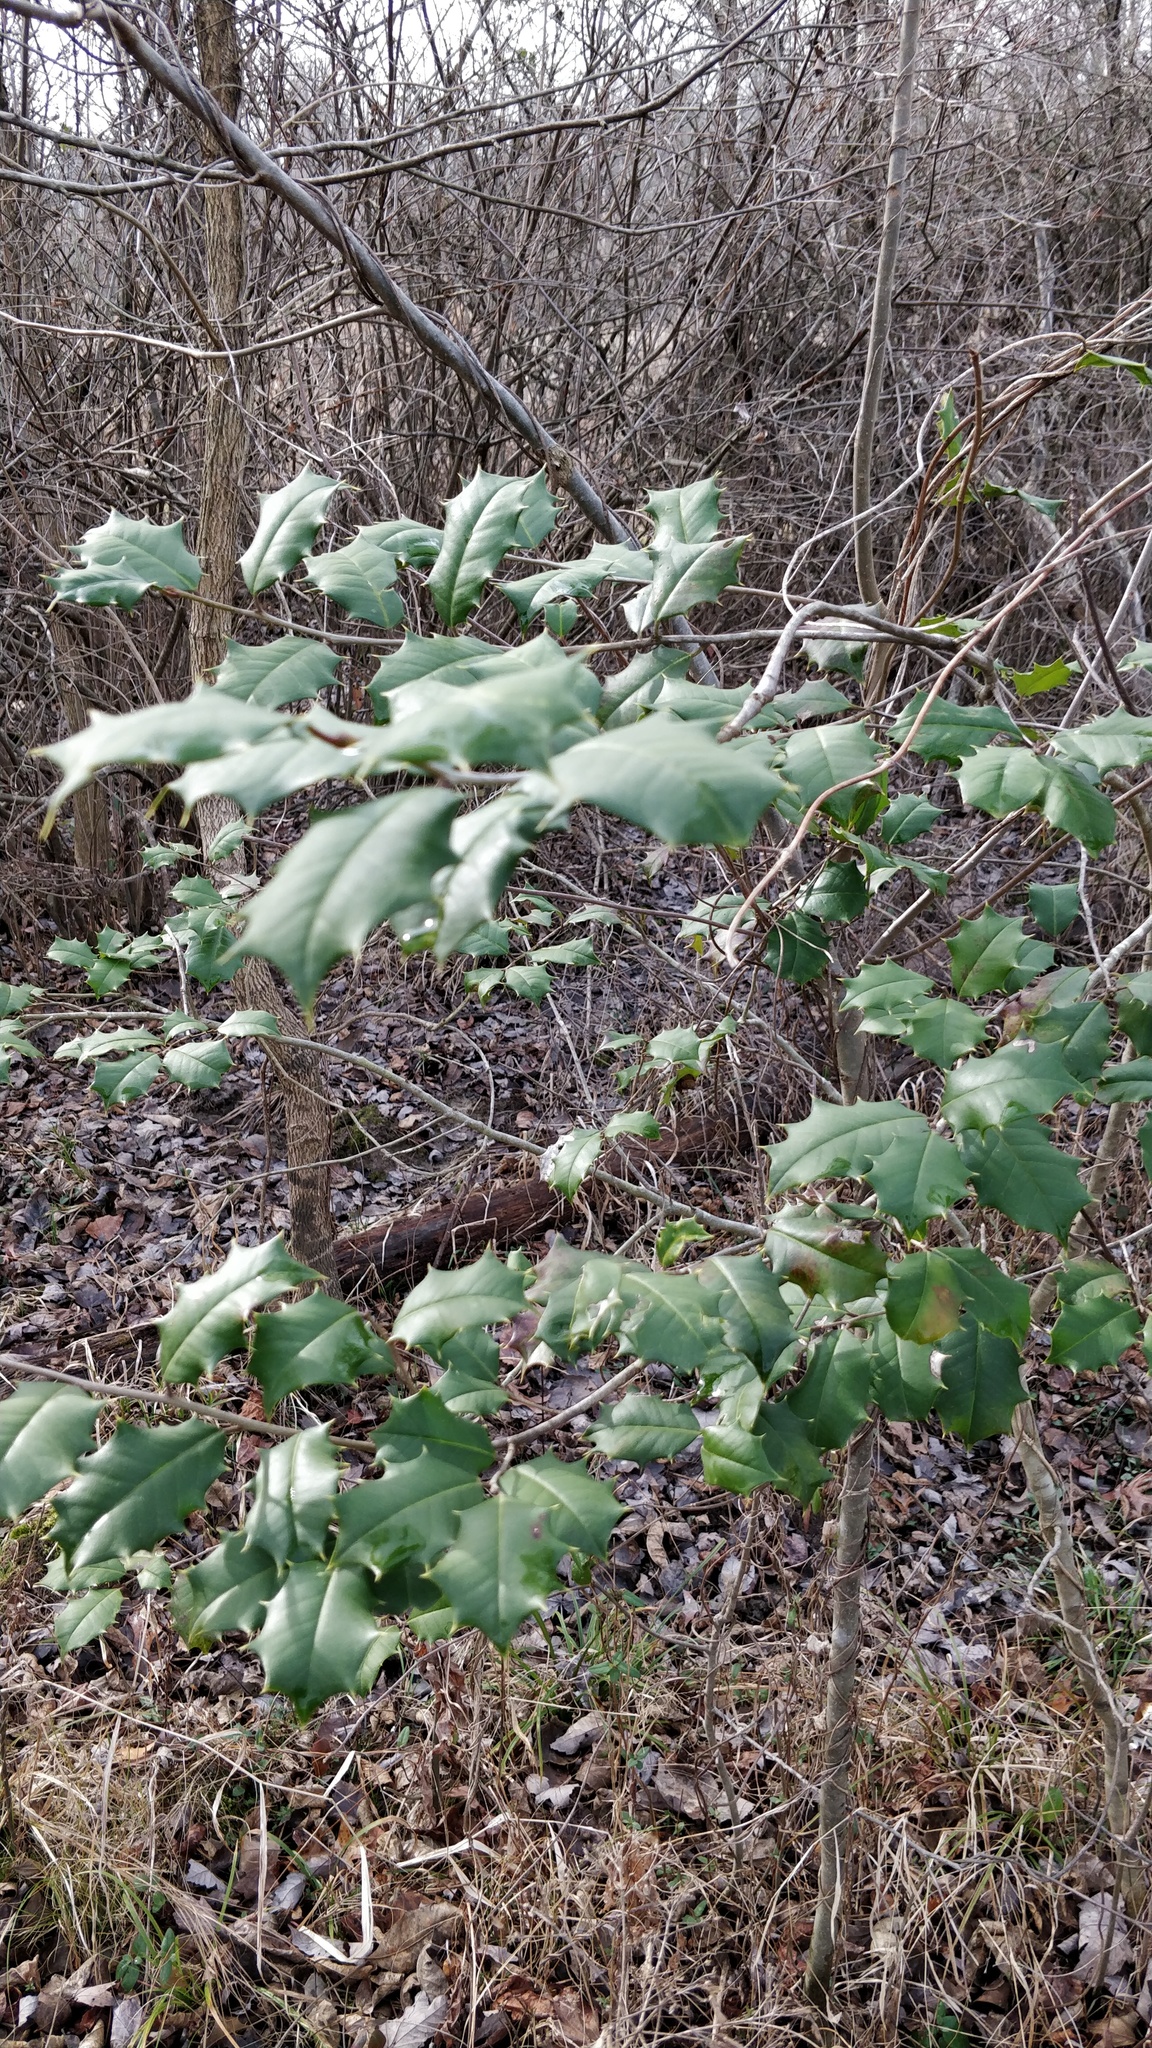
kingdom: Plantae
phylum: Tracheophyta
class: Magnoliopsida
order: Aquifoliales
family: Aquifoliaceae
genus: Ilex
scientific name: Ilex opaca
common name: American holly
